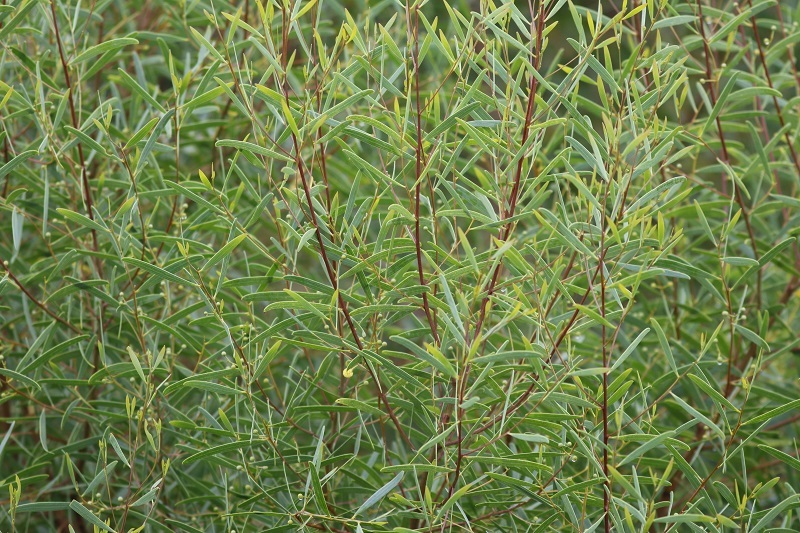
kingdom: Plantae
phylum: Tracheophyta
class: Magnoliopsida
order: Fabales
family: Fabaceae
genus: Acacia
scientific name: Acacia cyclops
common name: Coastal wattle
